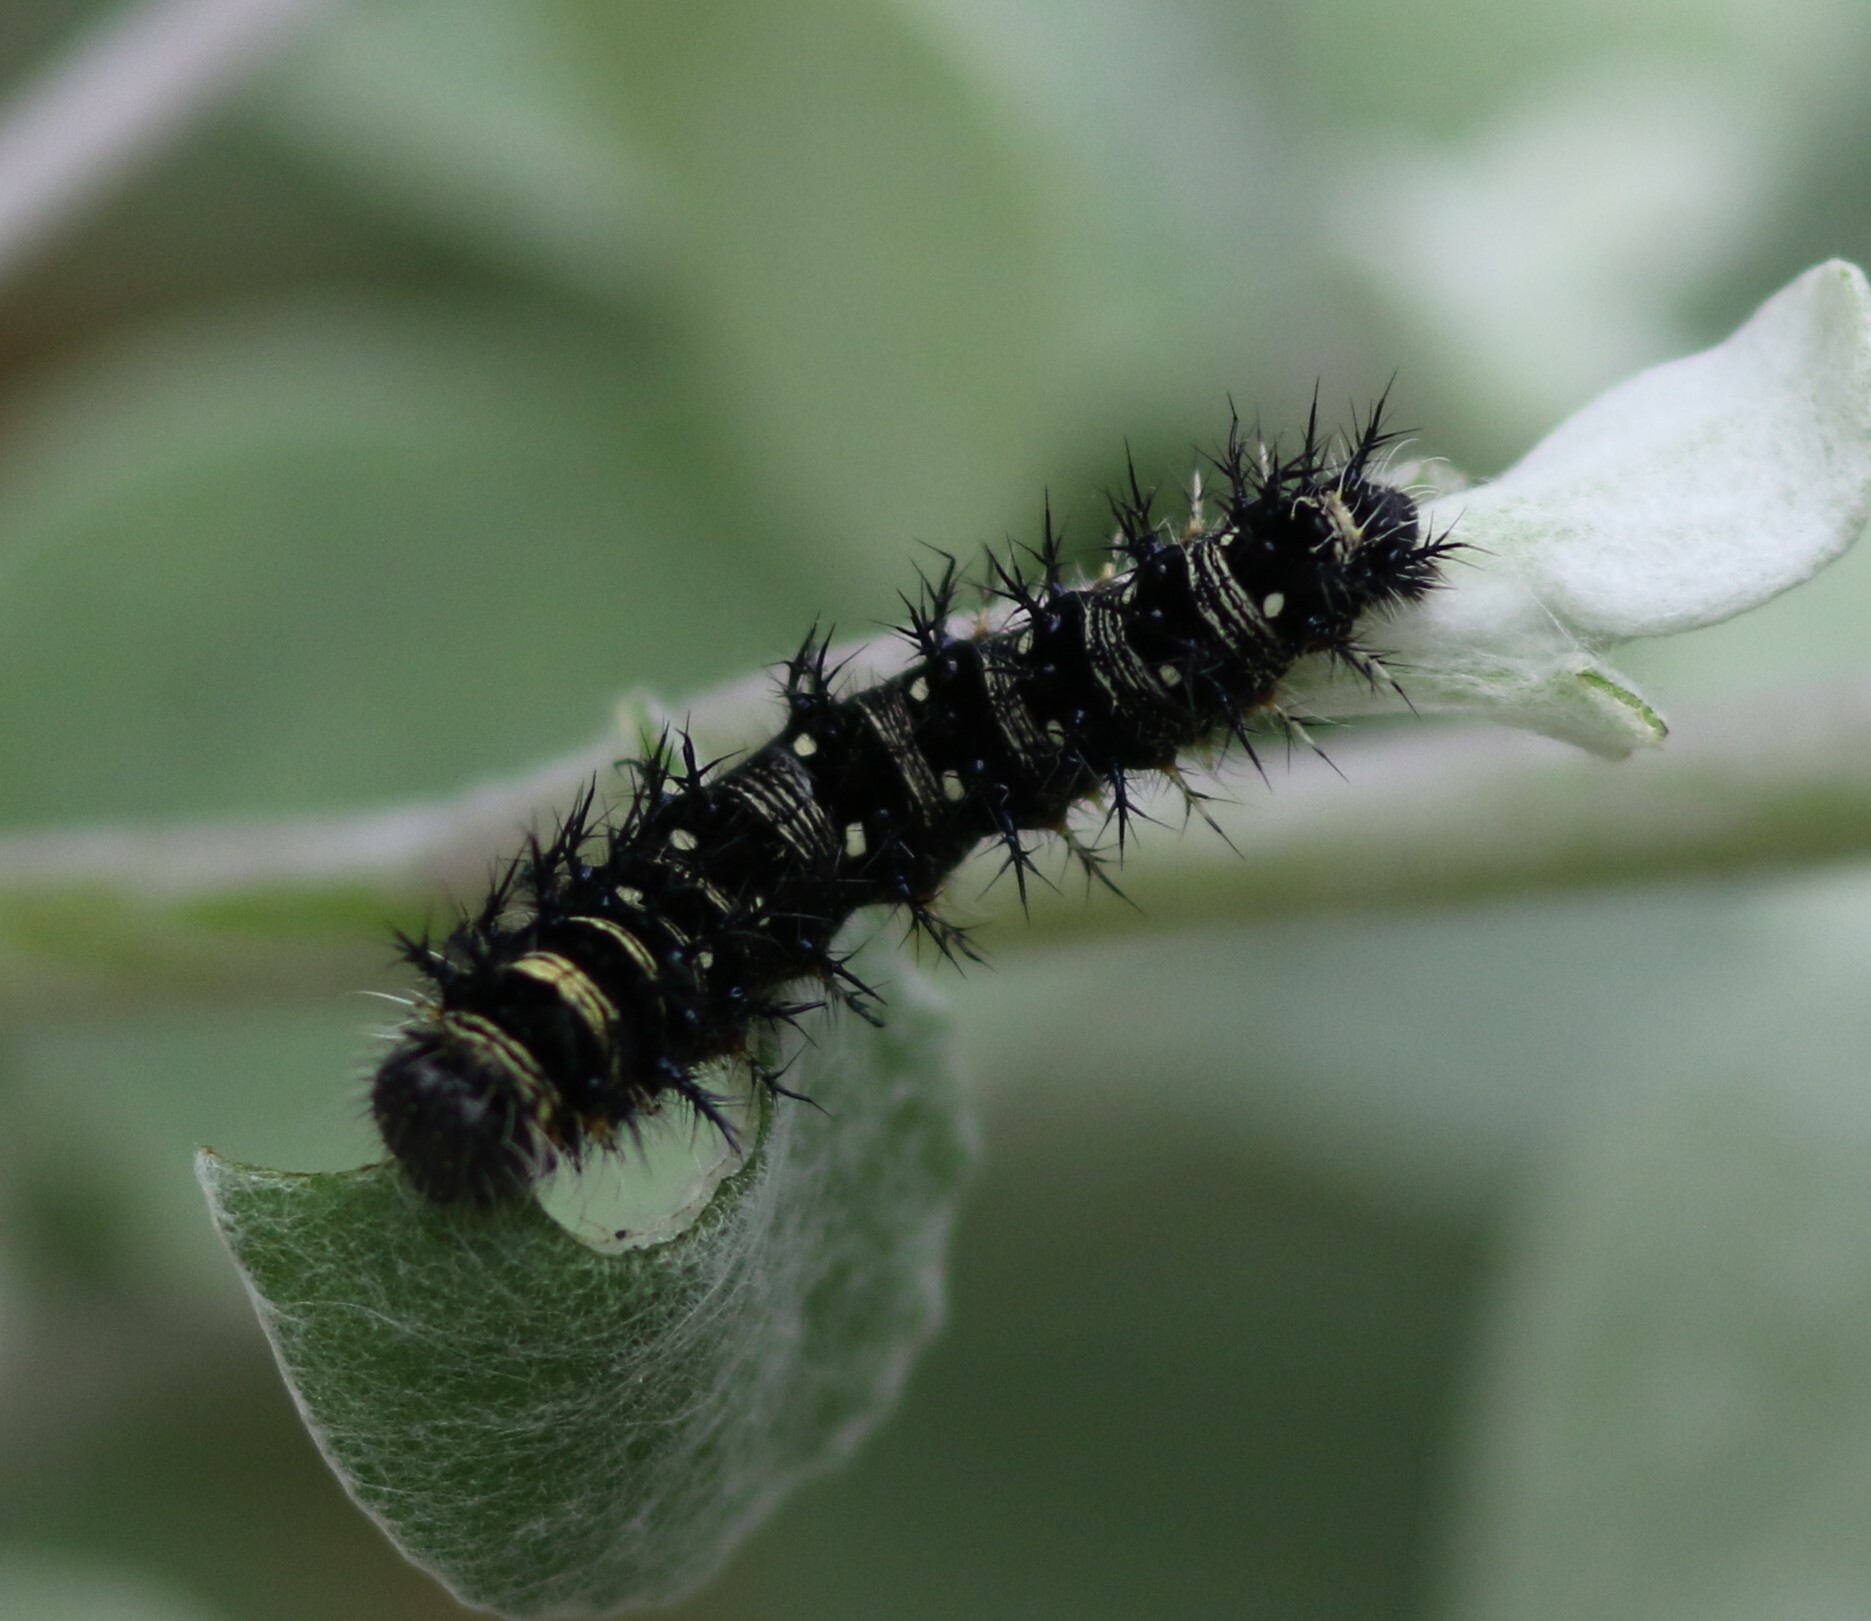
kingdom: Animalia
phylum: Arthropoda
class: Insecta
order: Lepidoptera
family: Nymphalidae
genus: Vanessa
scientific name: Vanessa virginiensis
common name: American lady
